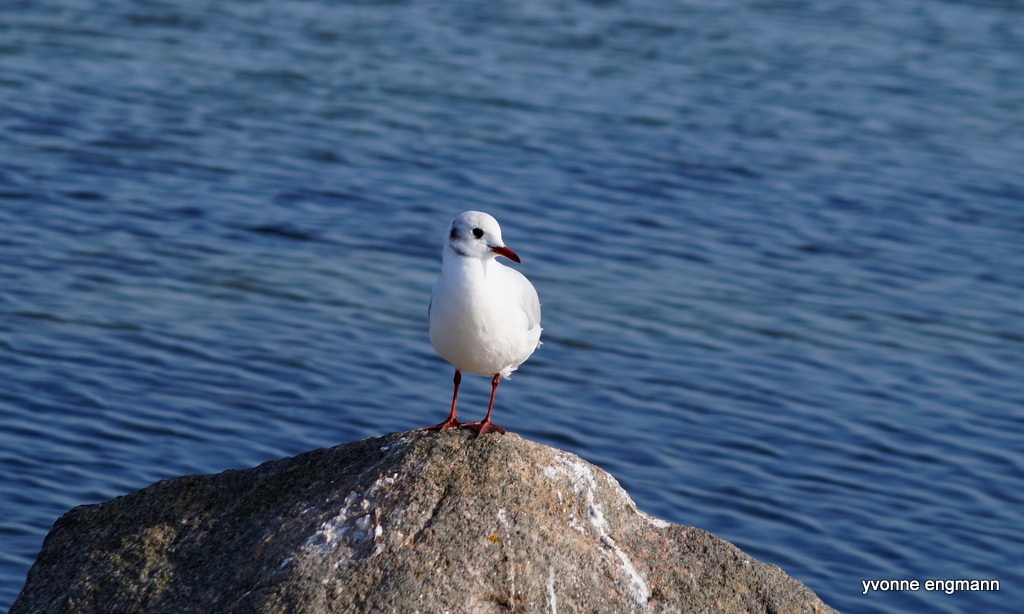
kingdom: Animalia
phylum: Chordata
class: Aves
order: Charadriiformes
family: Laridae
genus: Chroicocephalus
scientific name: Chroicocephalus ridibundus
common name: Black-headed gull
